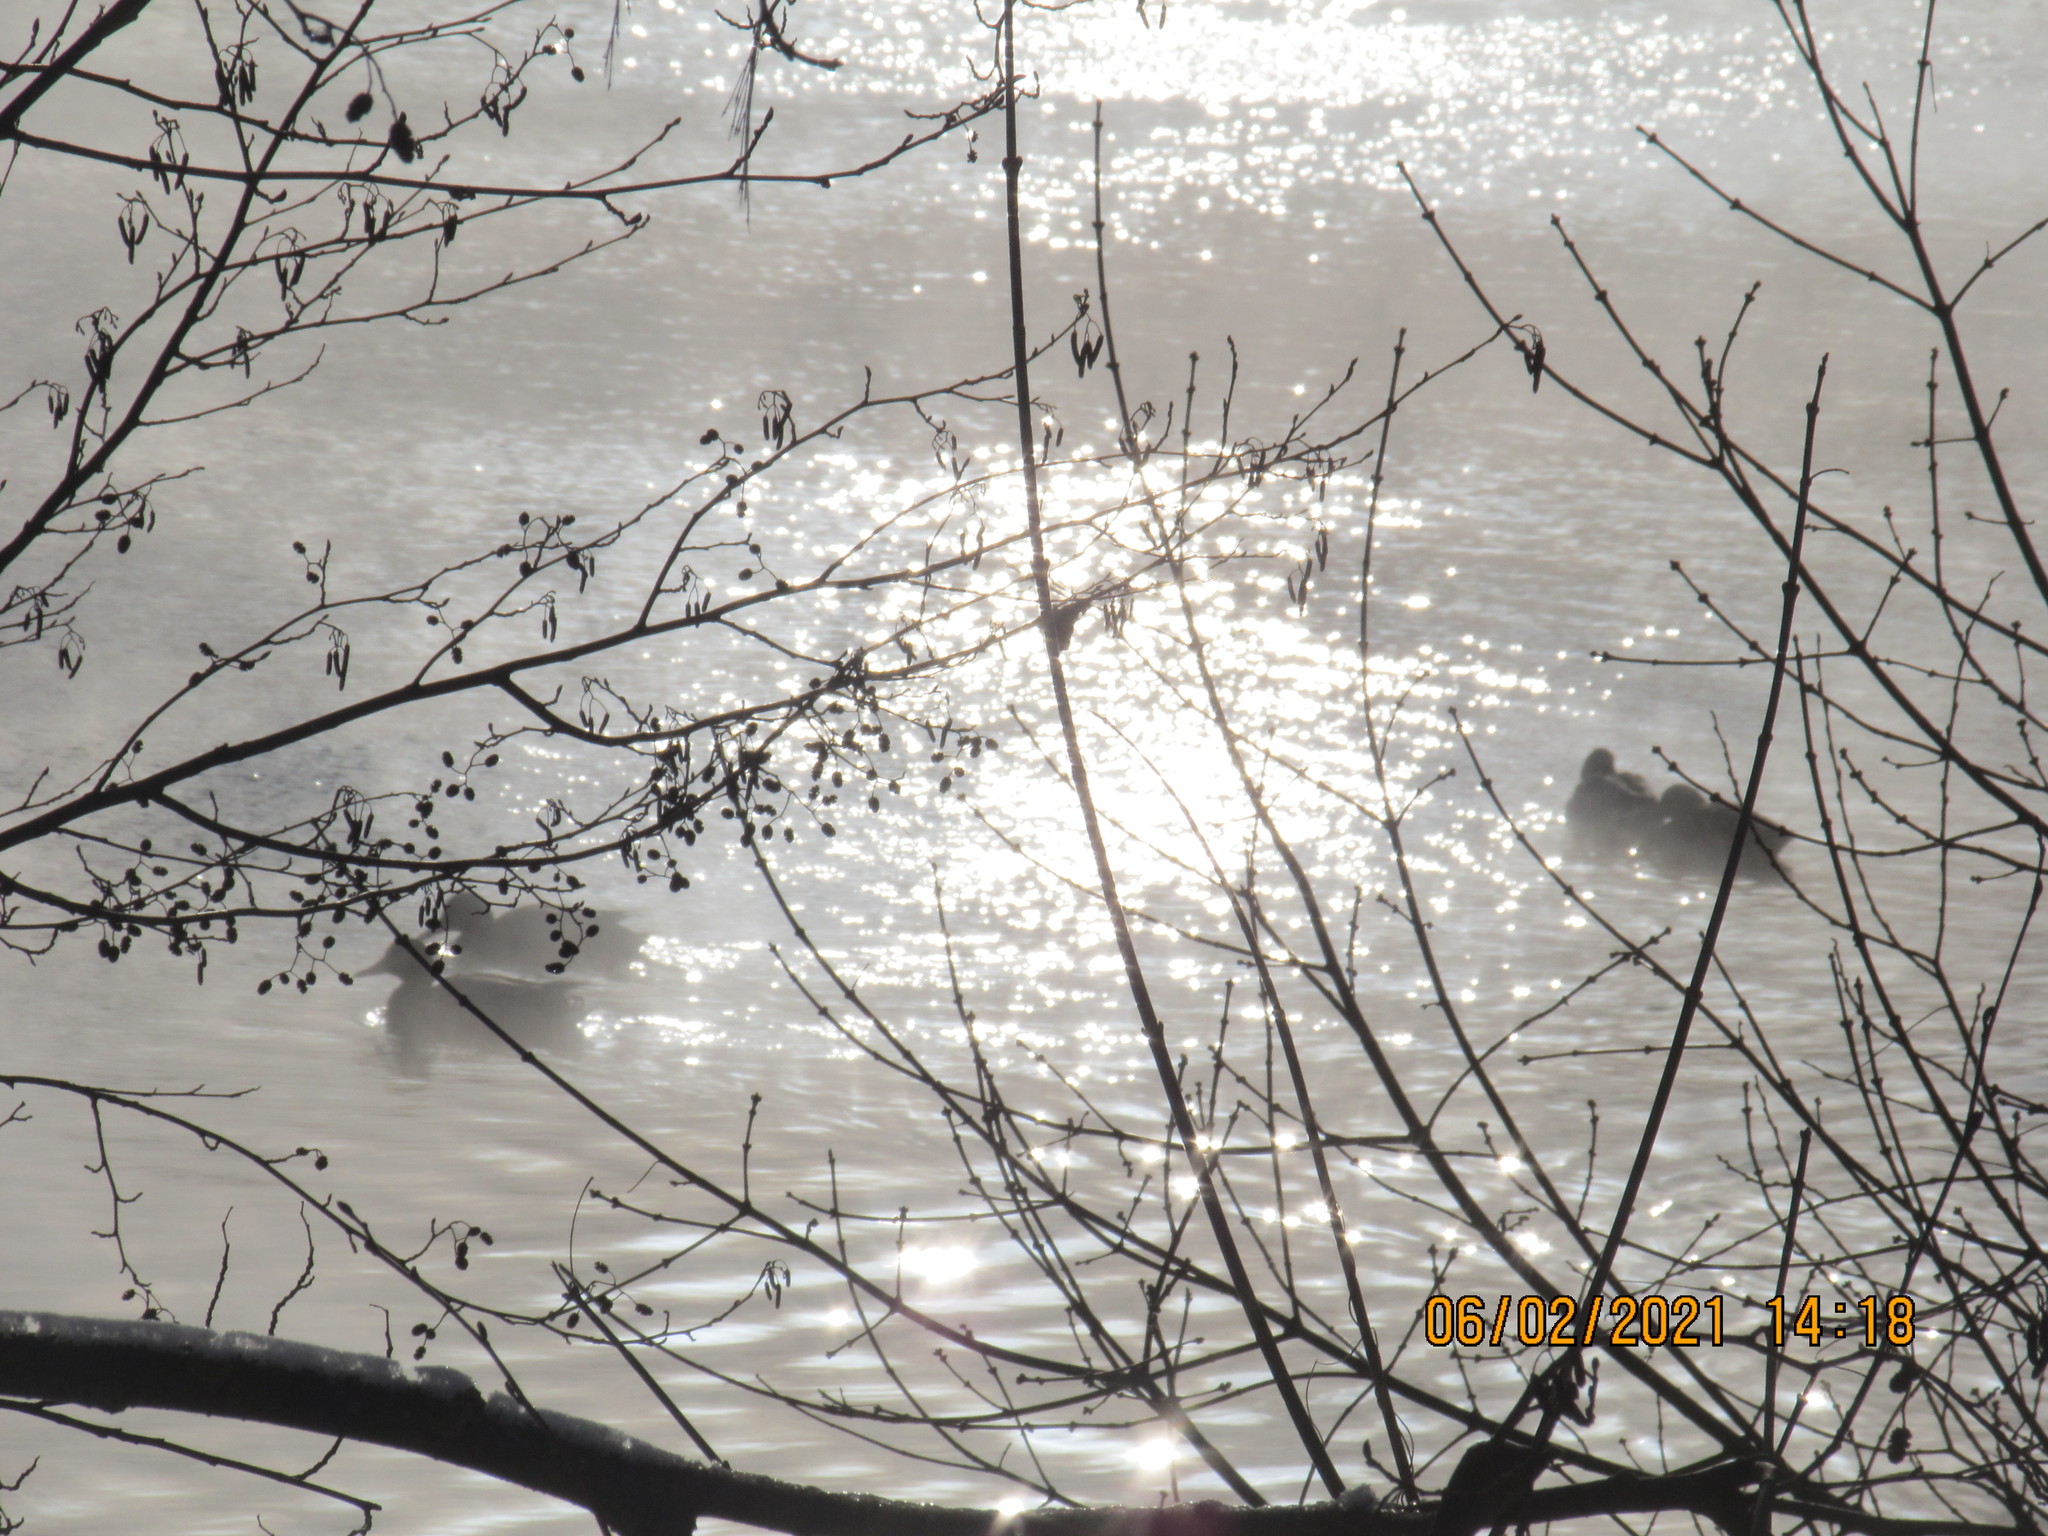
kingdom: Animalia
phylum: Chordata
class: Aves
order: Anseriformes
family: Anatidae
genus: Anas
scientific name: Anas platyrhynchos
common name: Mallard
